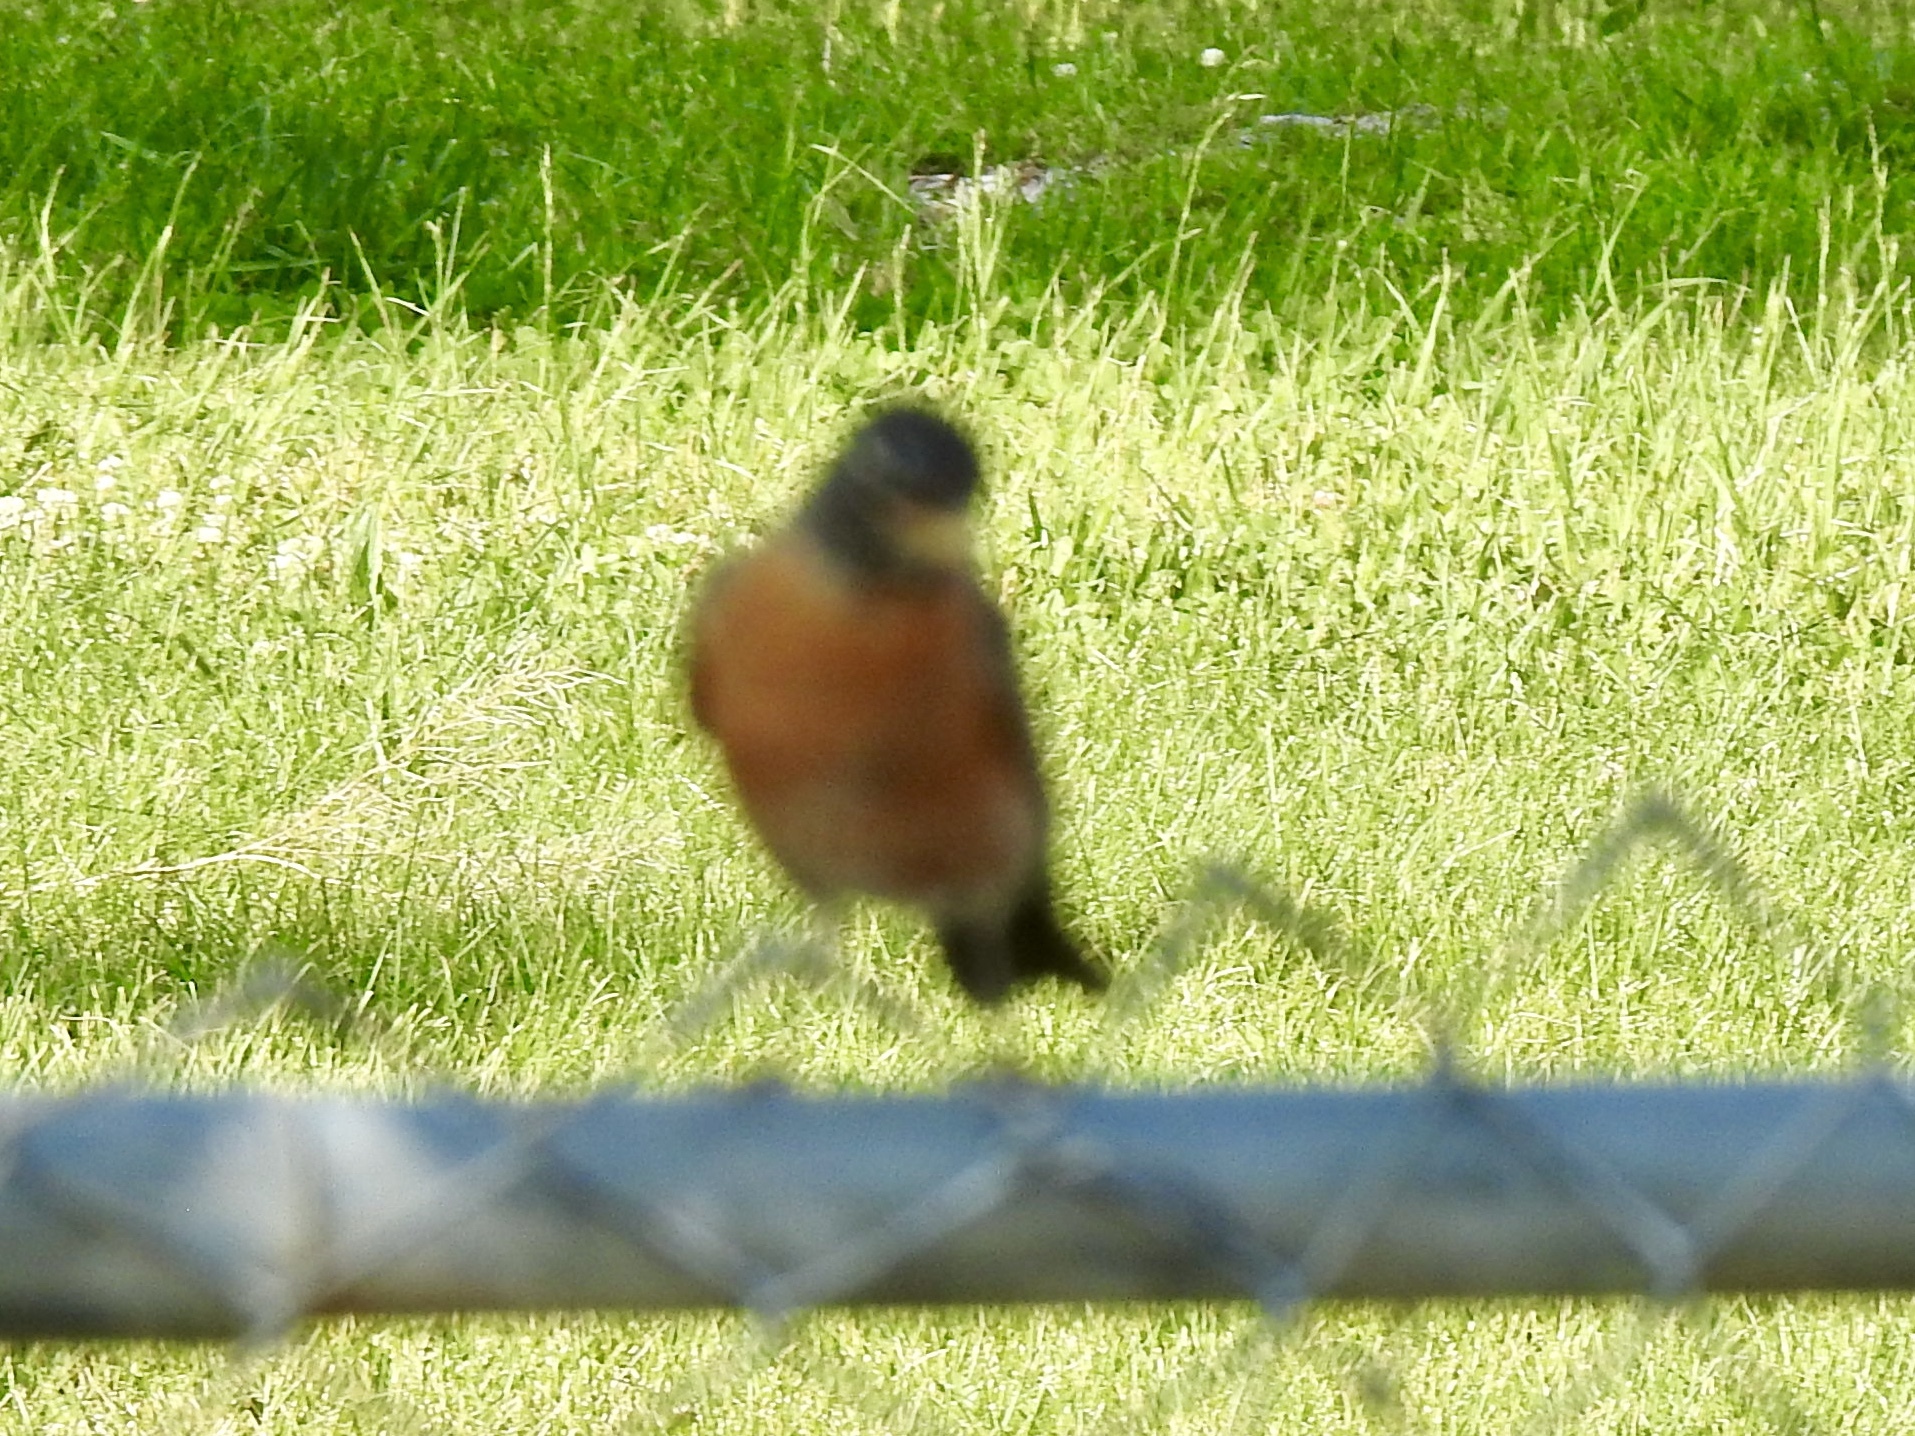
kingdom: Animalia
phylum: Chordata
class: Aves
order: Passeriformes
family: Turdidae
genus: Turdus
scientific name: Turdus migratorius
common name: American robin
